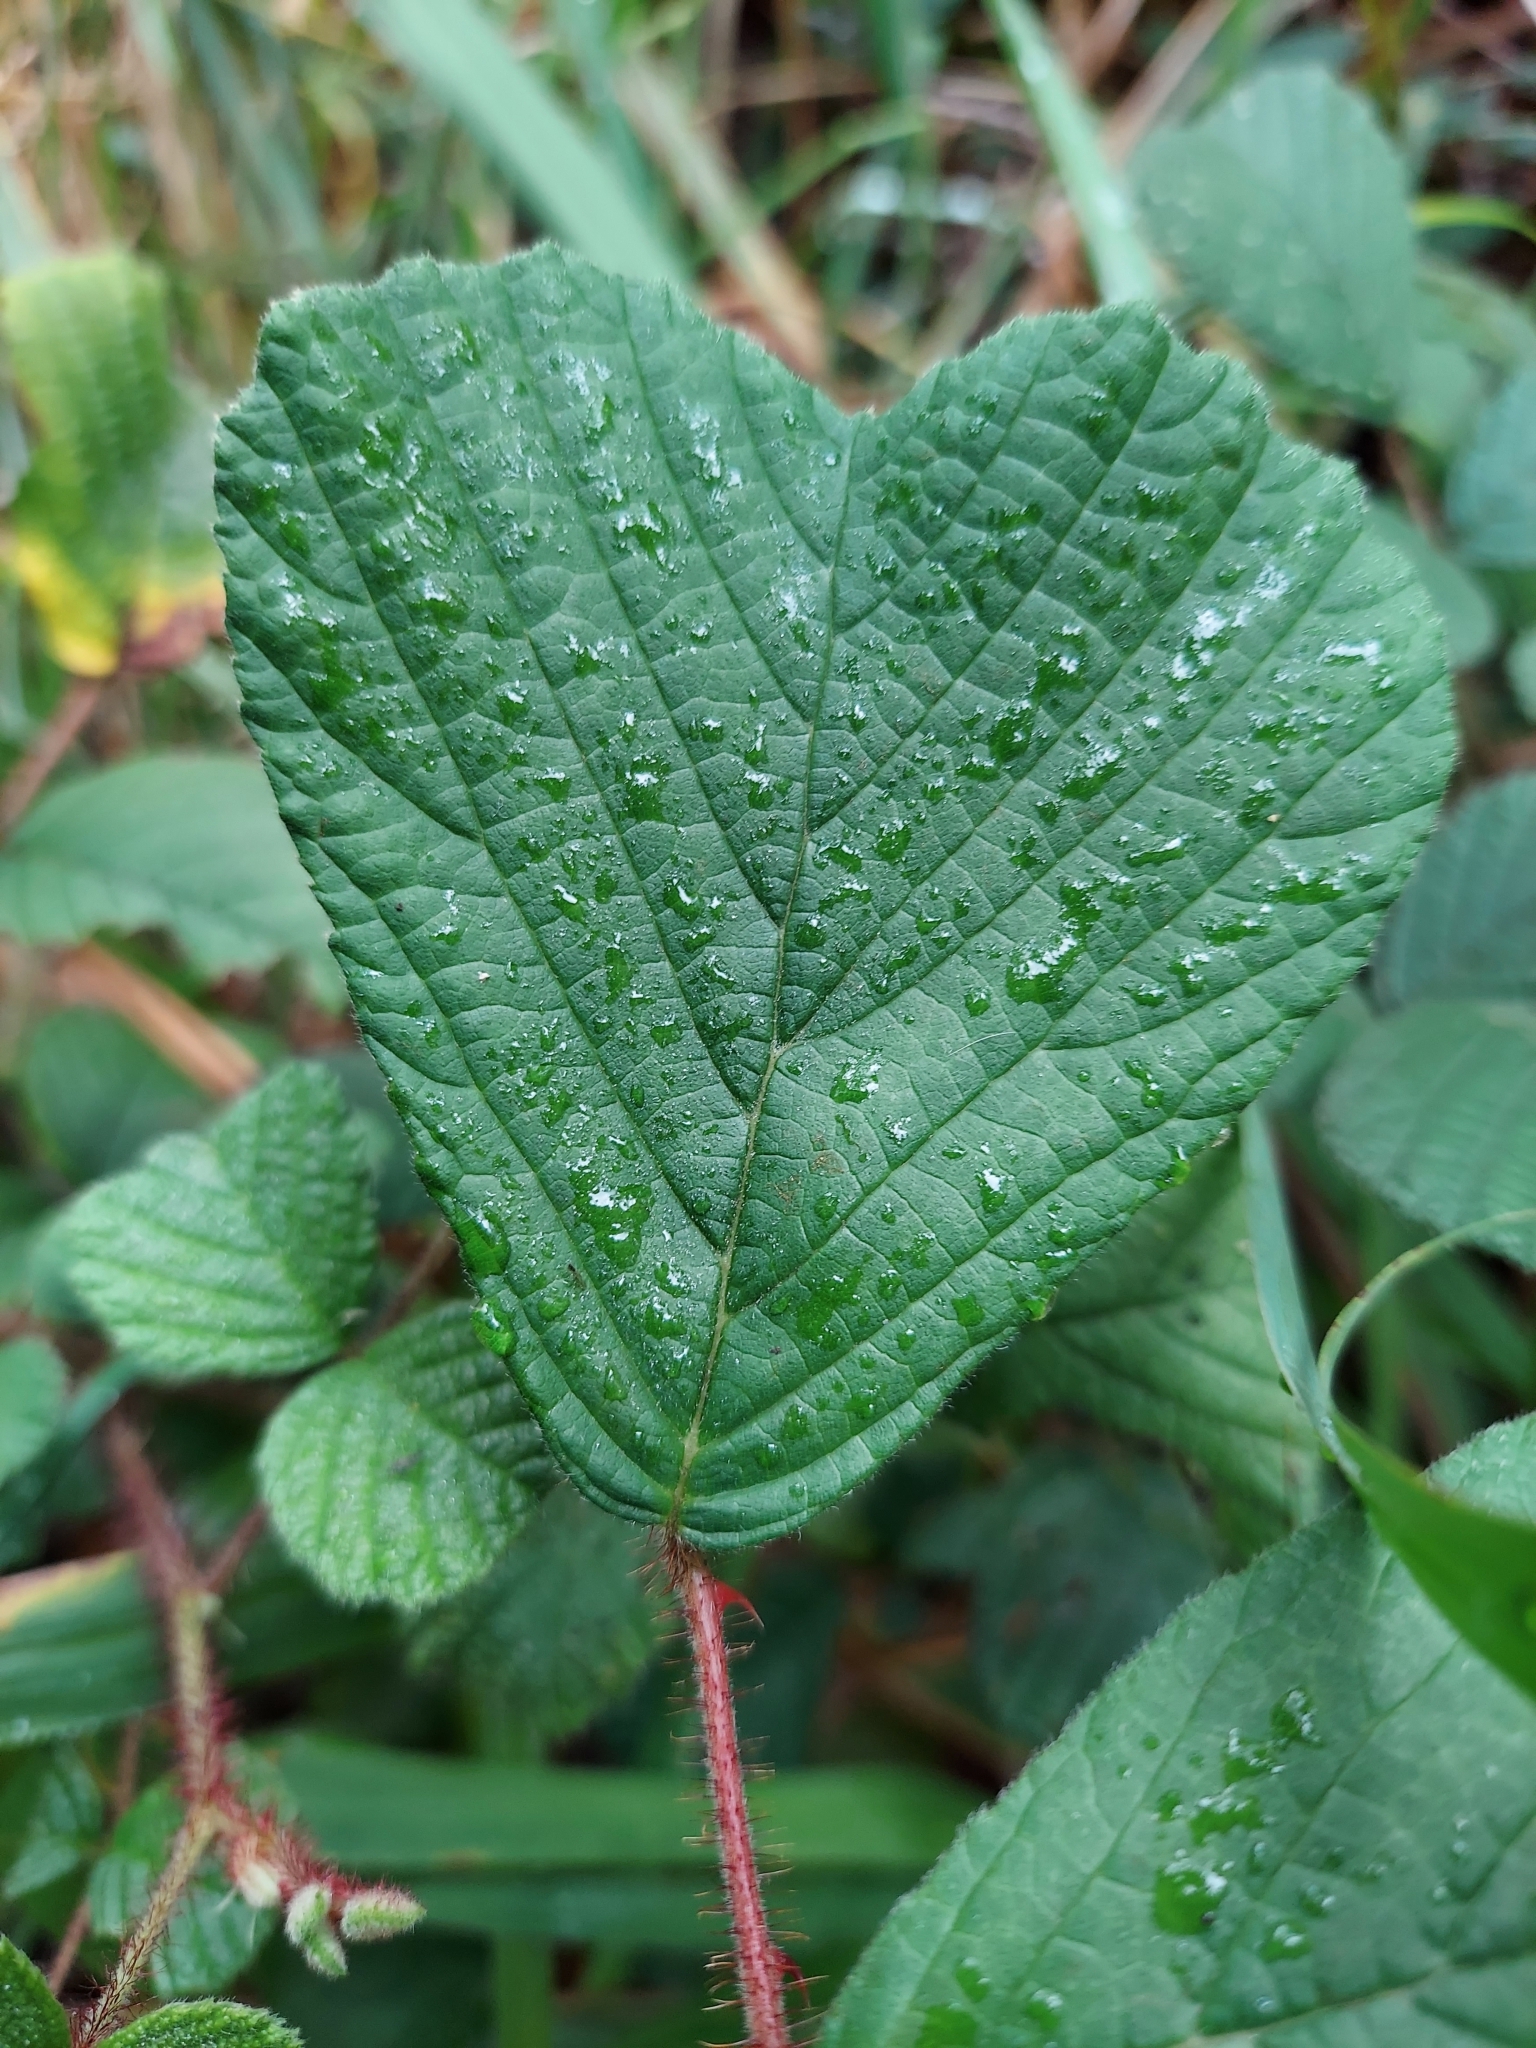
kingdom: Plantae
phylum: Tracheophyta
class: Magnoliopsida
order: Rosales
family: Rosaceae
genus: Rubus
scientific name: Rubus ellipticus
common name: Cheeseberry
